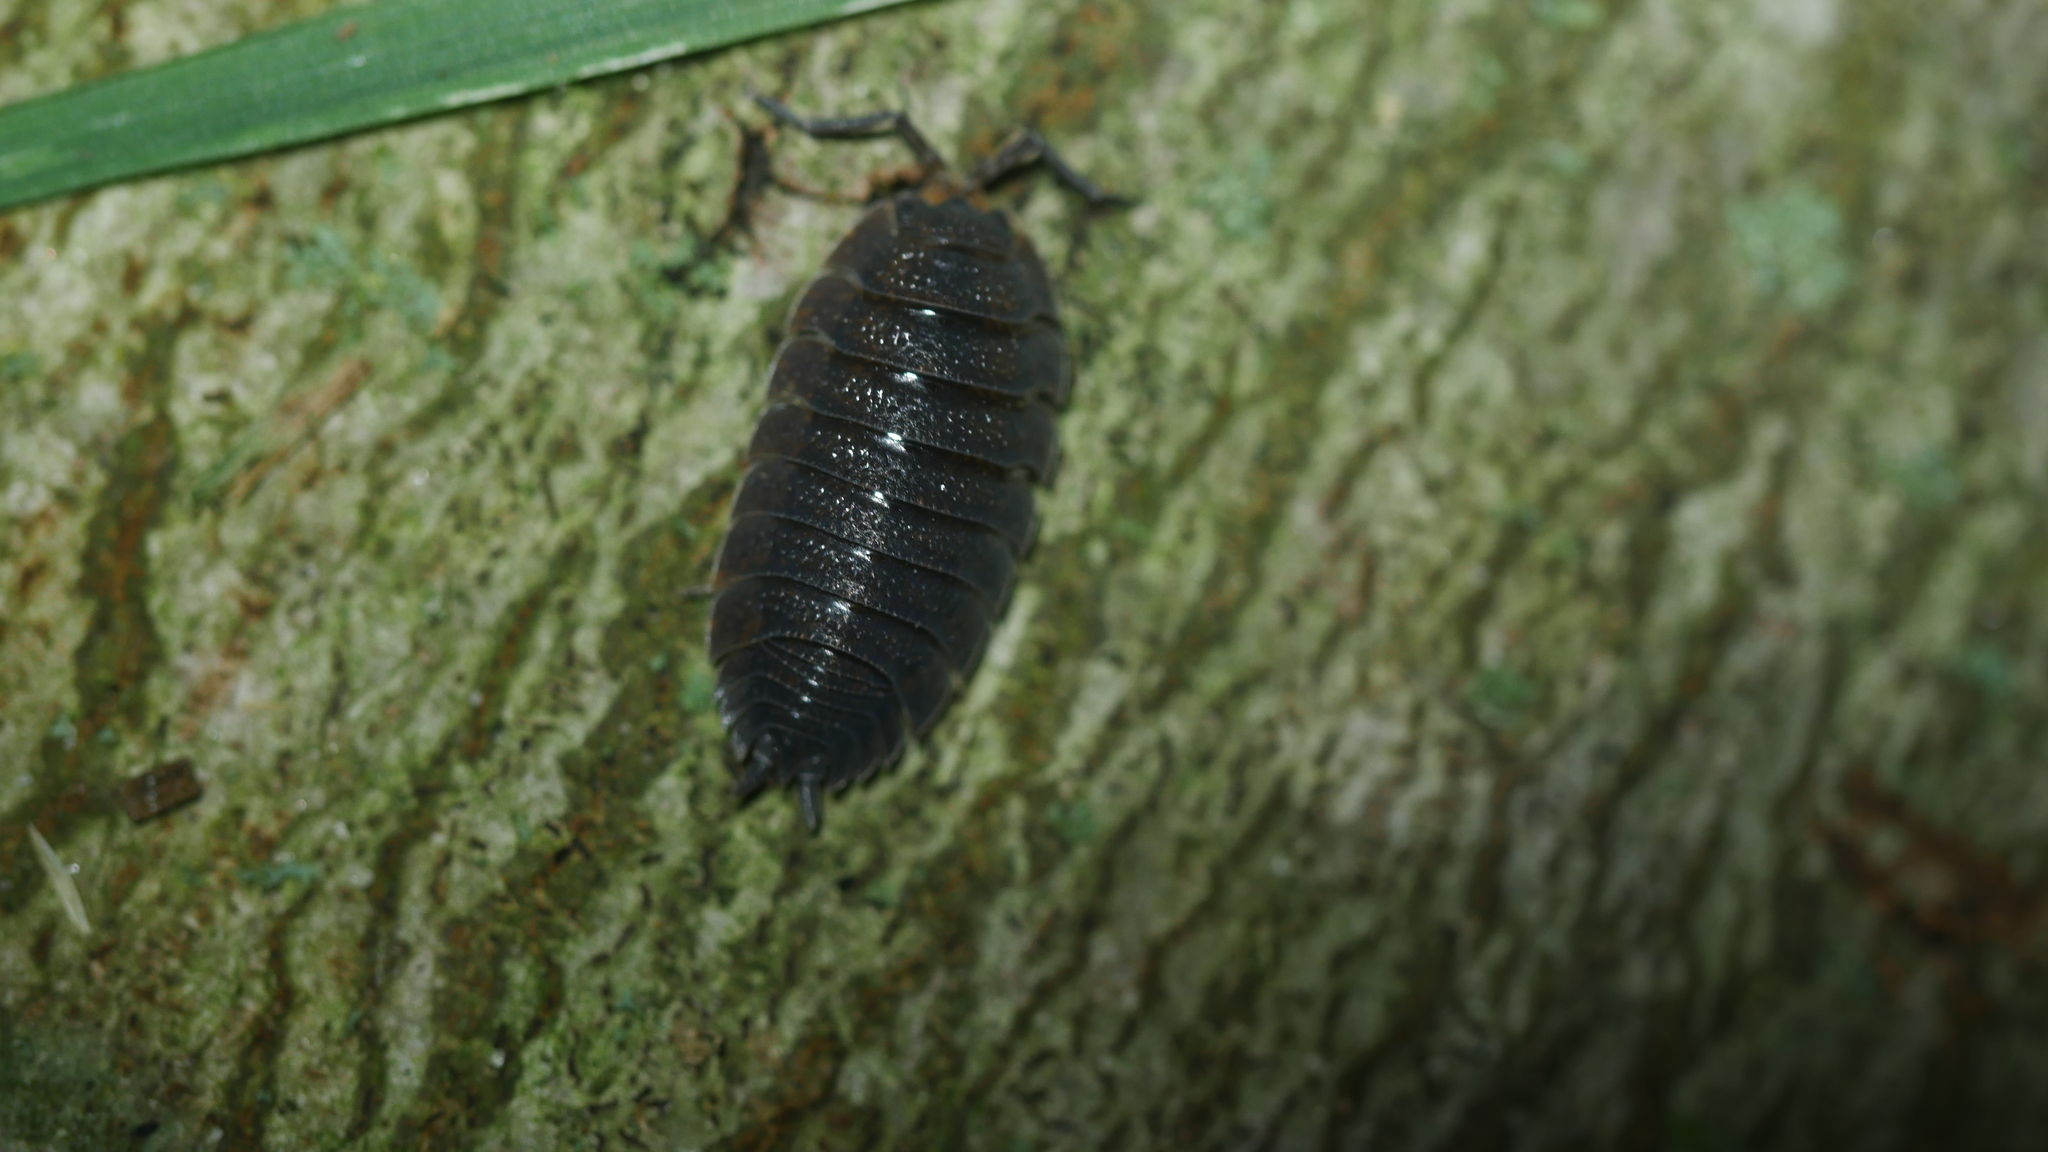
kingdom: Animalia
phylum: Arthropoda
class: Malacostraca
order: Isopoda
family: Porcellionidae
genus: Porcellio
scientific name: Porcellio scaber
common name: Common rough woodlouse
